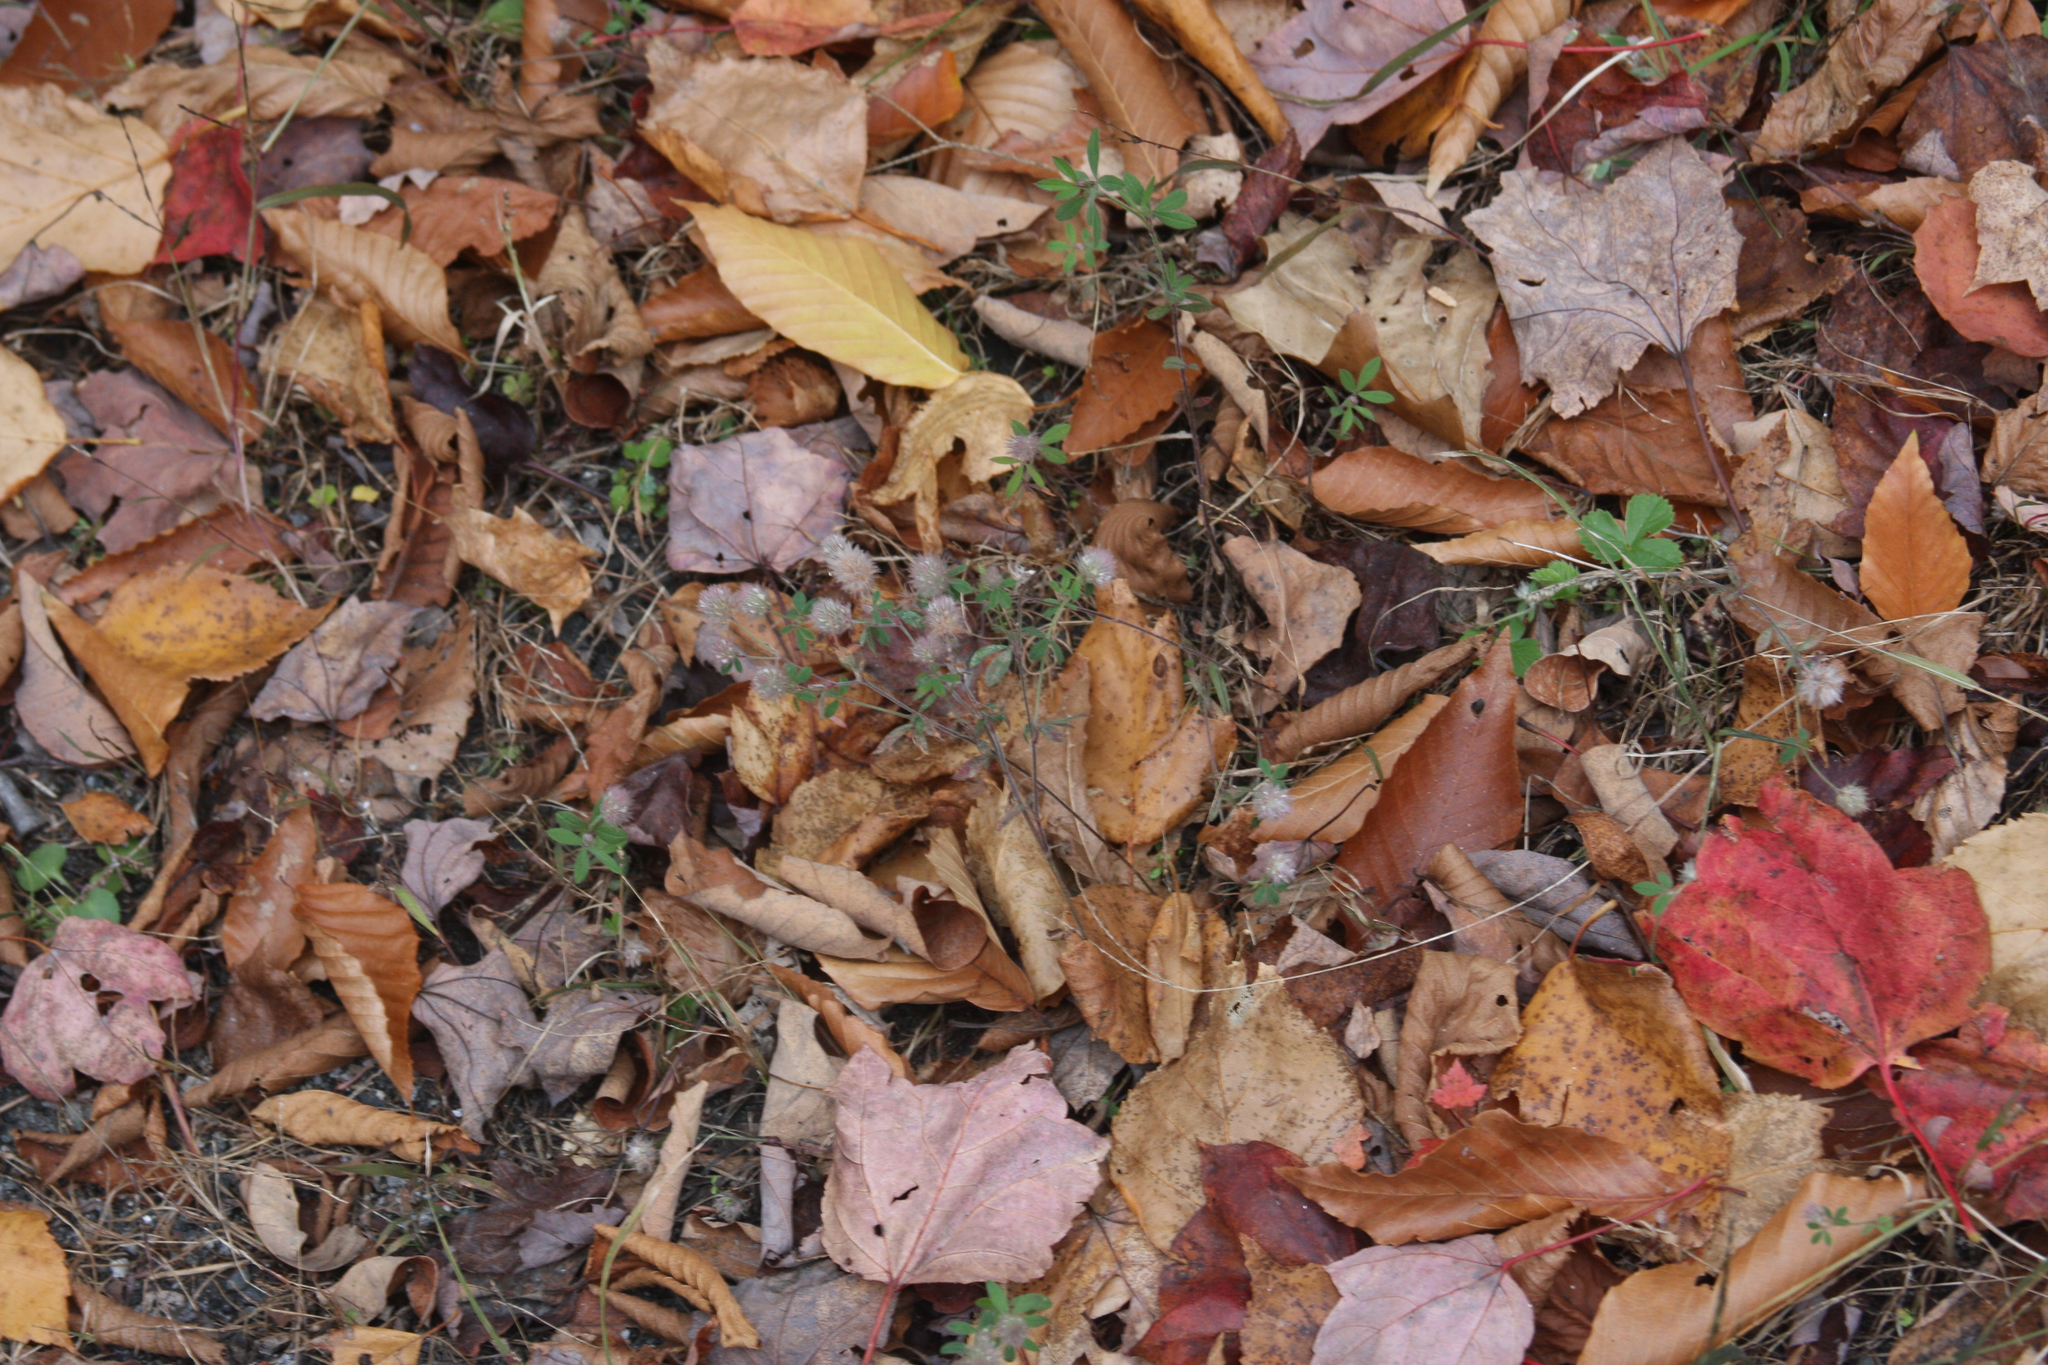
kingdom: Plantae
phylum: Tracheophyta
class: Magnoliopsida
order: Fabales
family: Fabaceae
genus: Trifolium
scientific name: Trifolium arvense
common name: Hare's-foot clover
